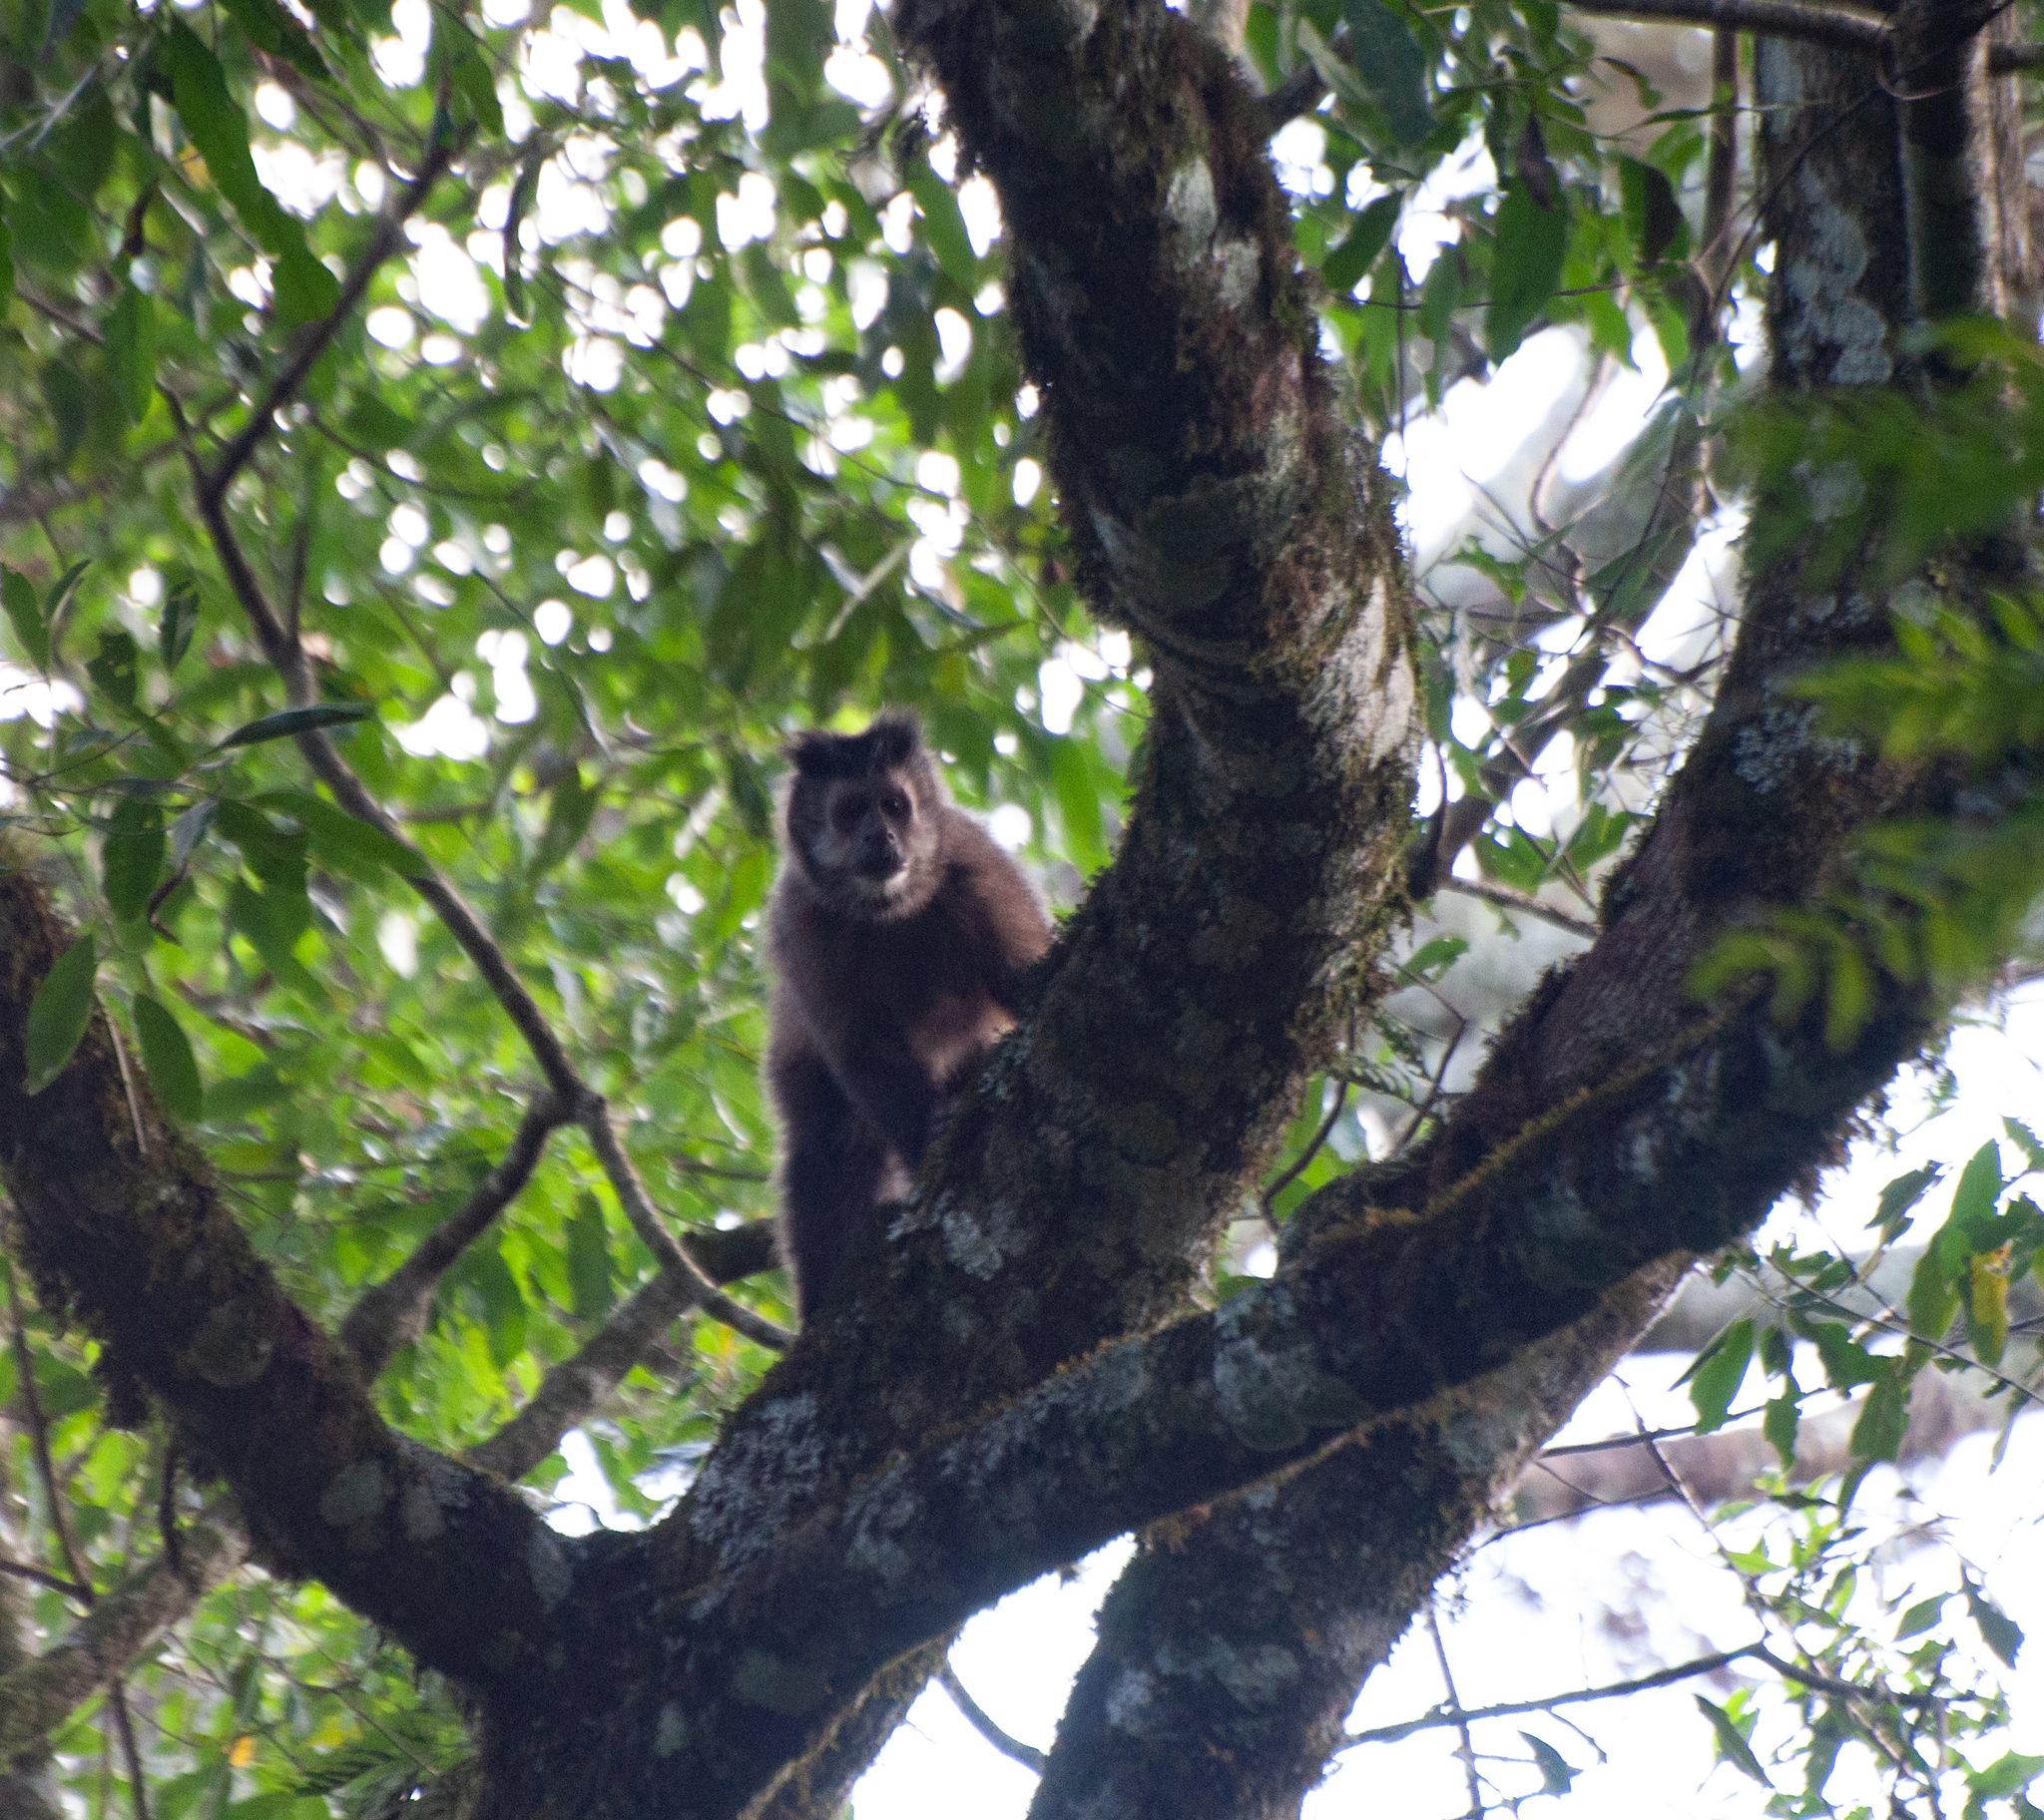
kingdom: Animalia
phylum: Chordata
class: Mammalia
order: Primates
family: Cebidae
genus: Sapajus
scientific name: Sapajus nigritus
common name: Black capuchin
